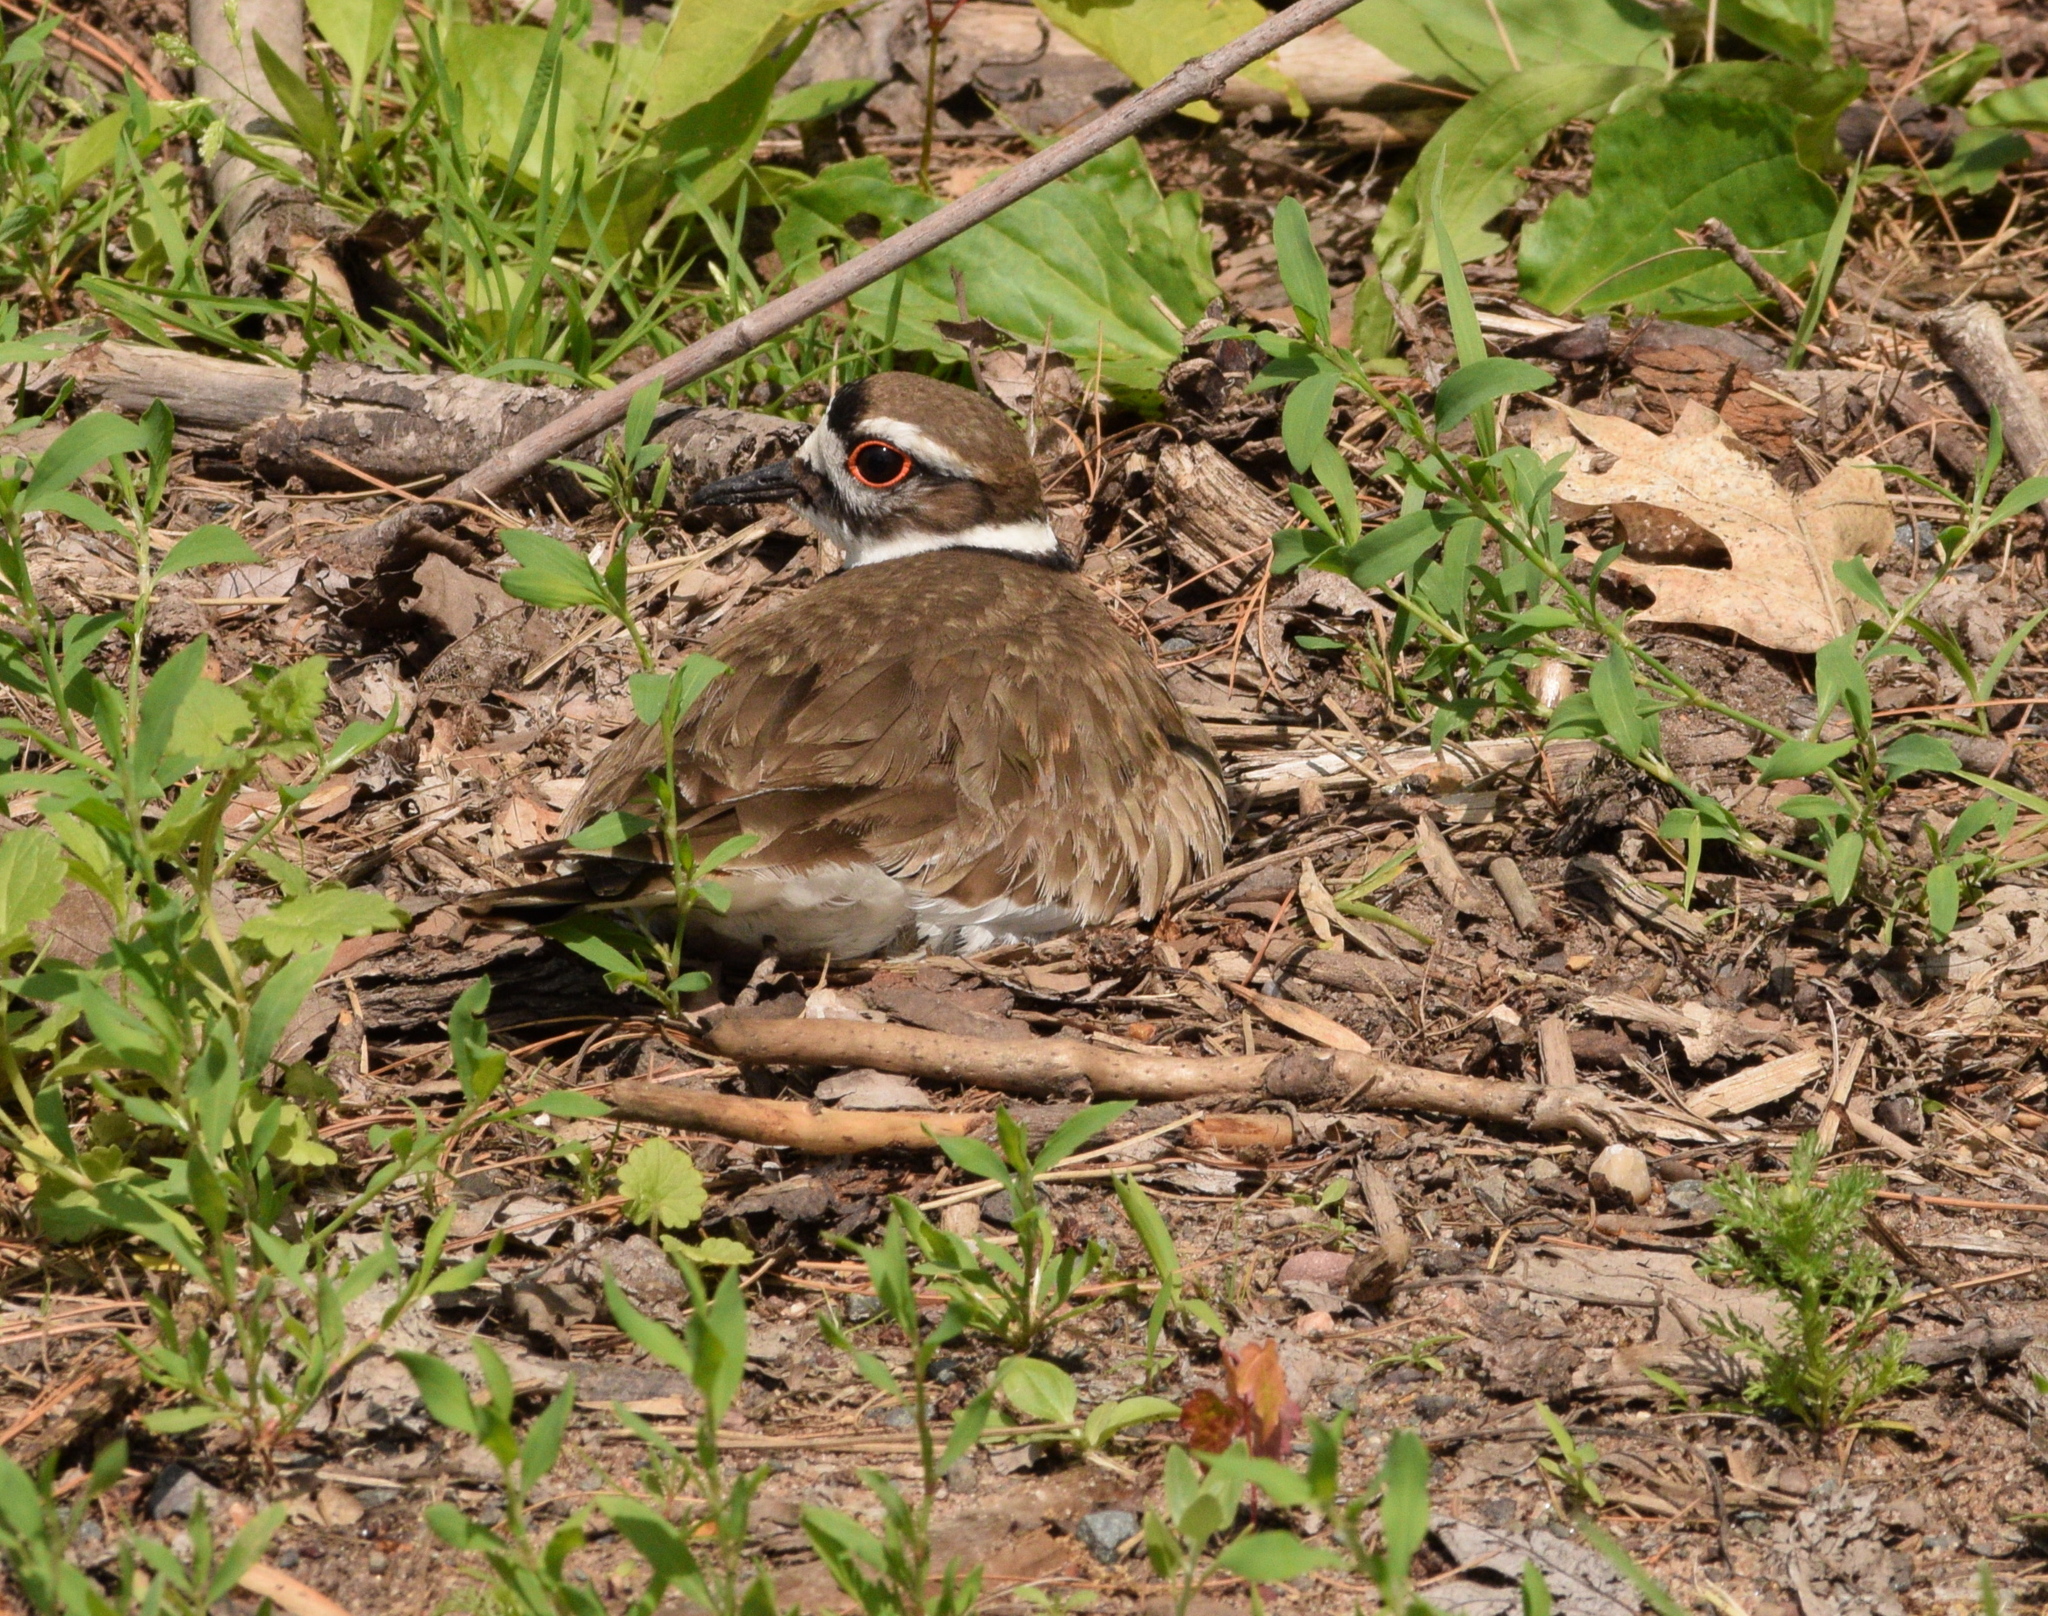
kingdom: Animalia
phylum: Chordata
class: Aves
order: Charadriiformes
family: Charadriidae
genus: Charadrius
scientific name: Charadrius vociferus
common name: Killdeer
